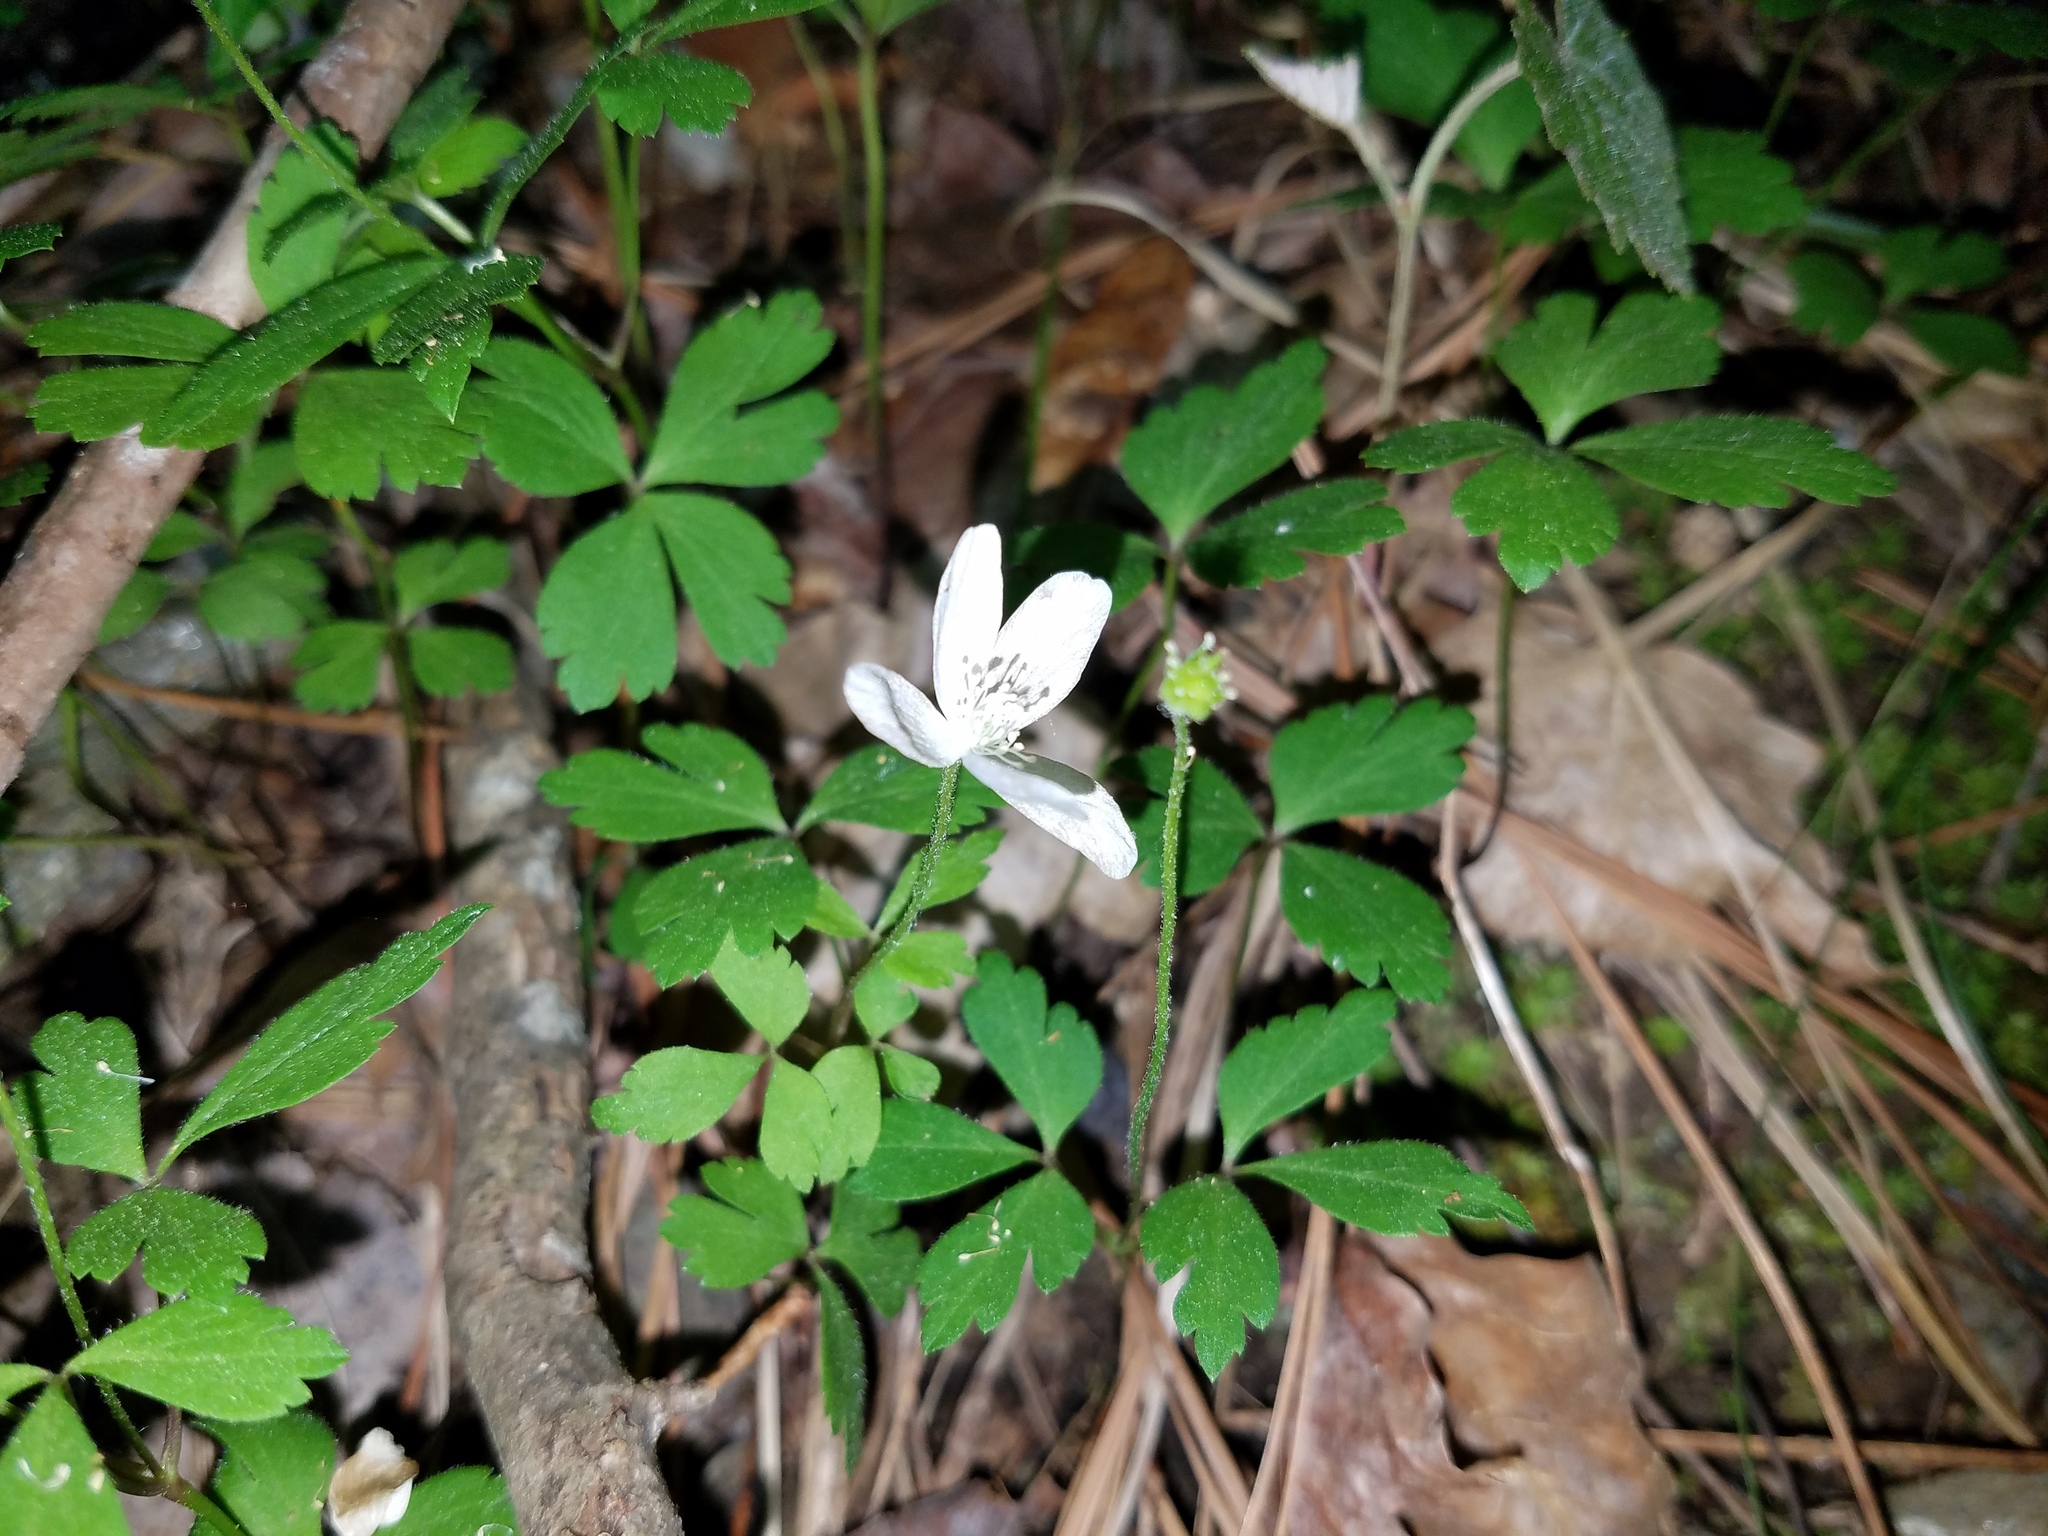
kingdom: Plantae
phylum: Tracheophyta
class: Magnoliopsida
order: Ranunculales
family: Ranunculaceae
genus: Anemone
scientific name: Anemone quinquefolia
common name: Wood anemone
